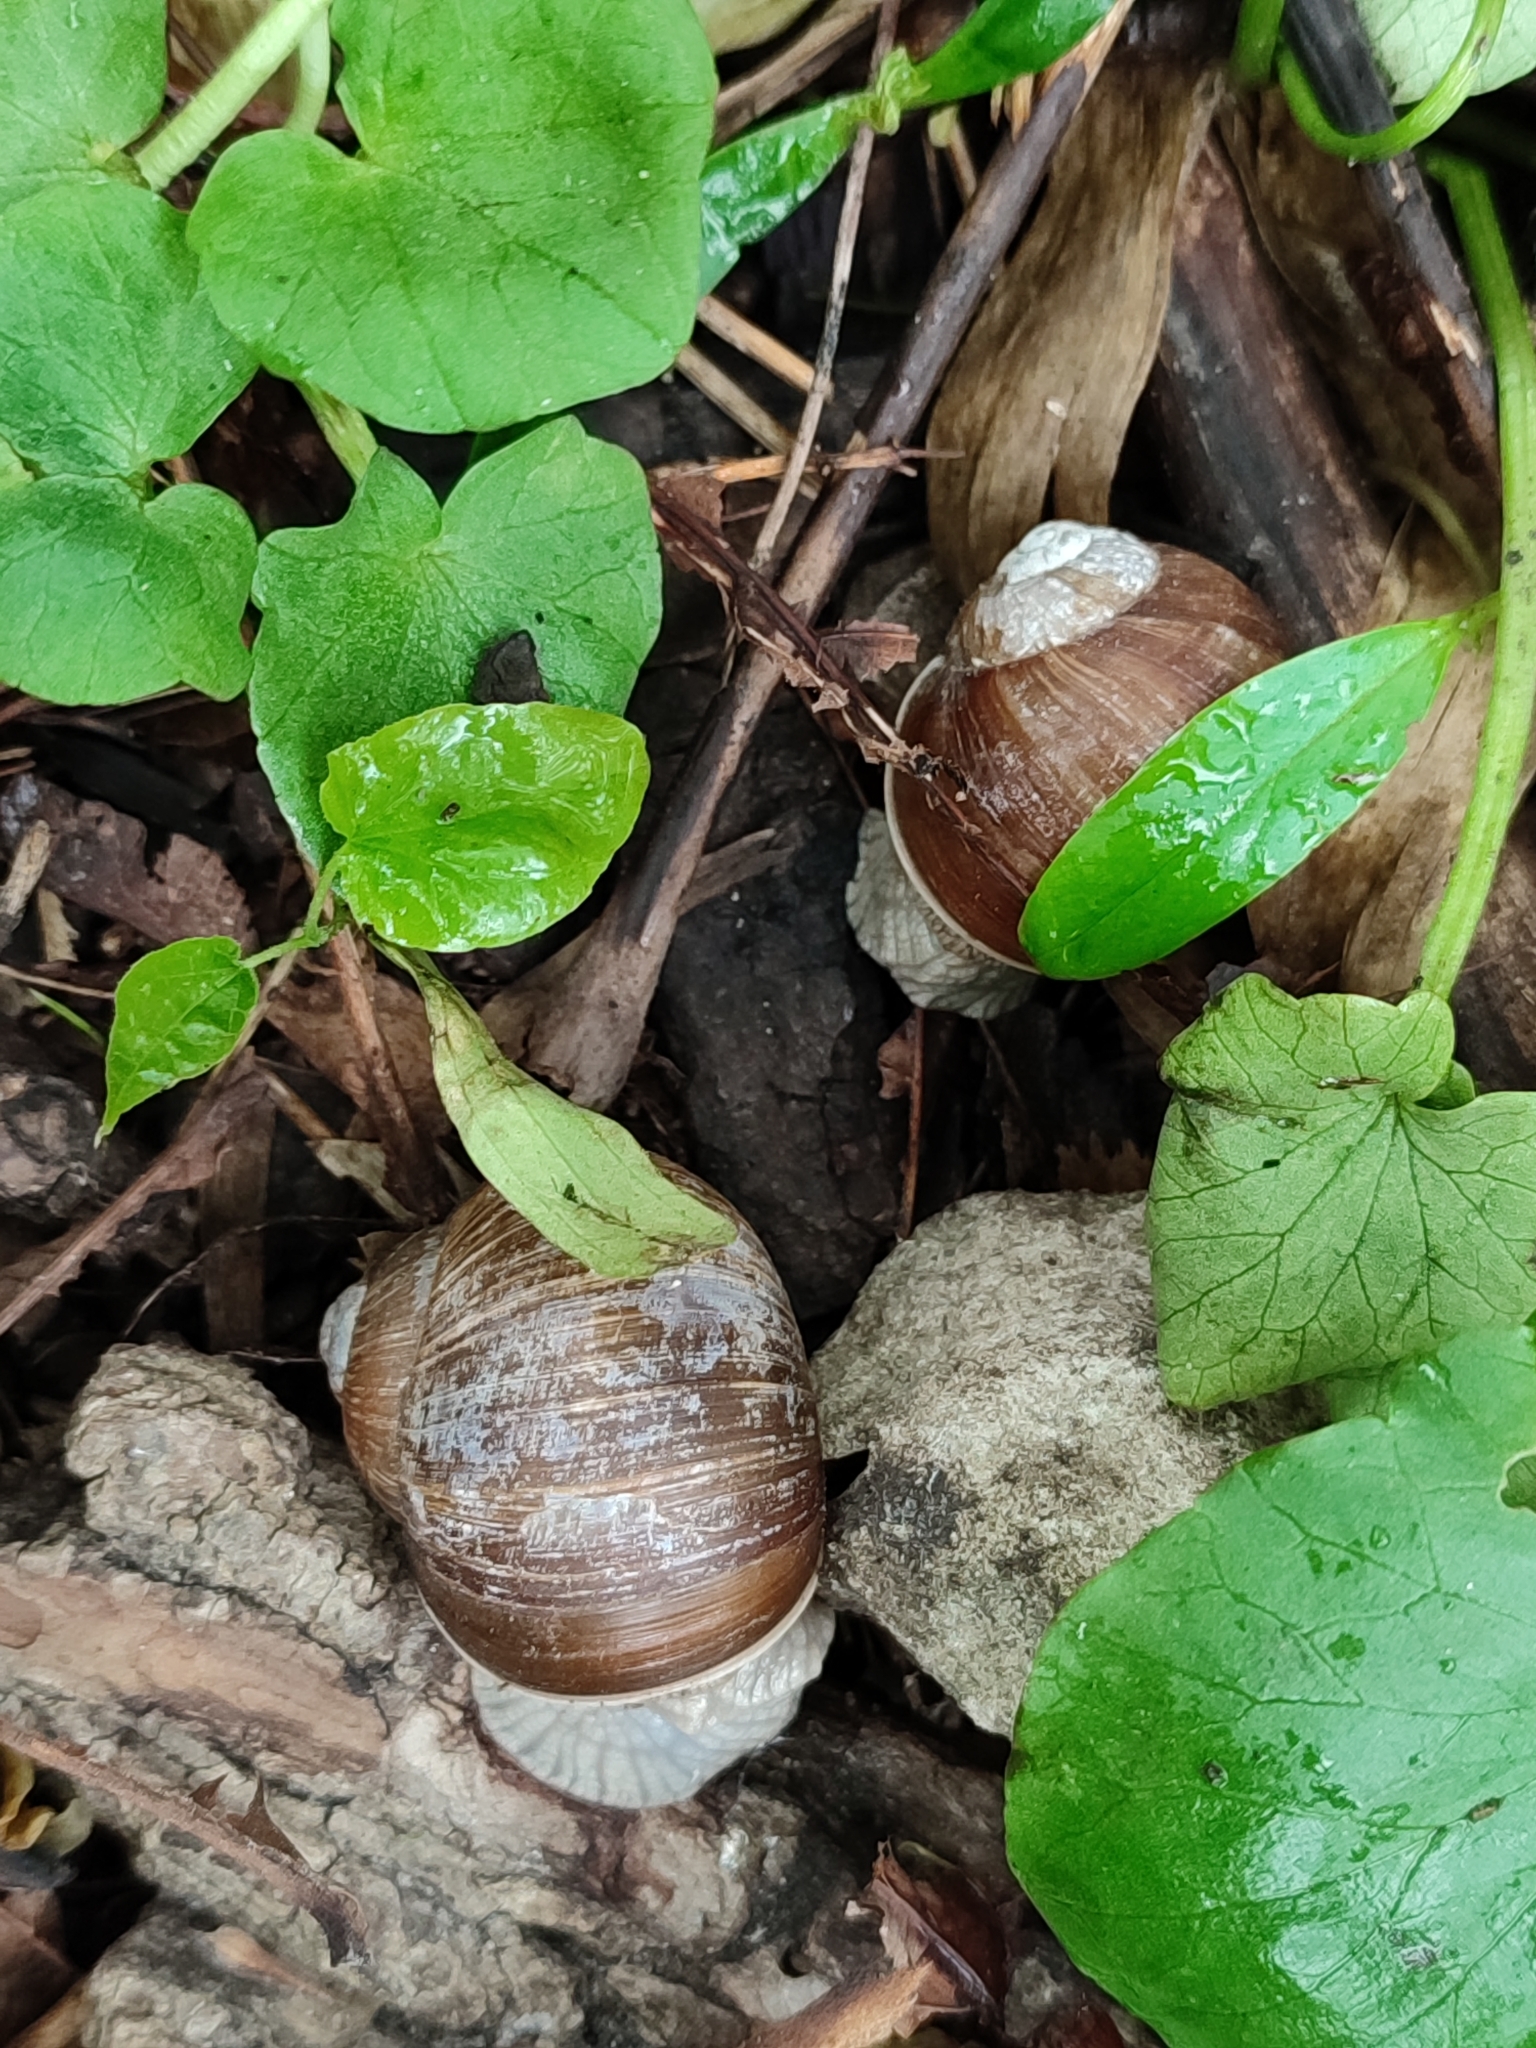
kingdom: Animalia
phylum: Mollusca
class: Gastropoda
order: Stylommatophora
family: Helicidae
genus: Helix
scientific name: Helix pomatia
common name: Roman snail
